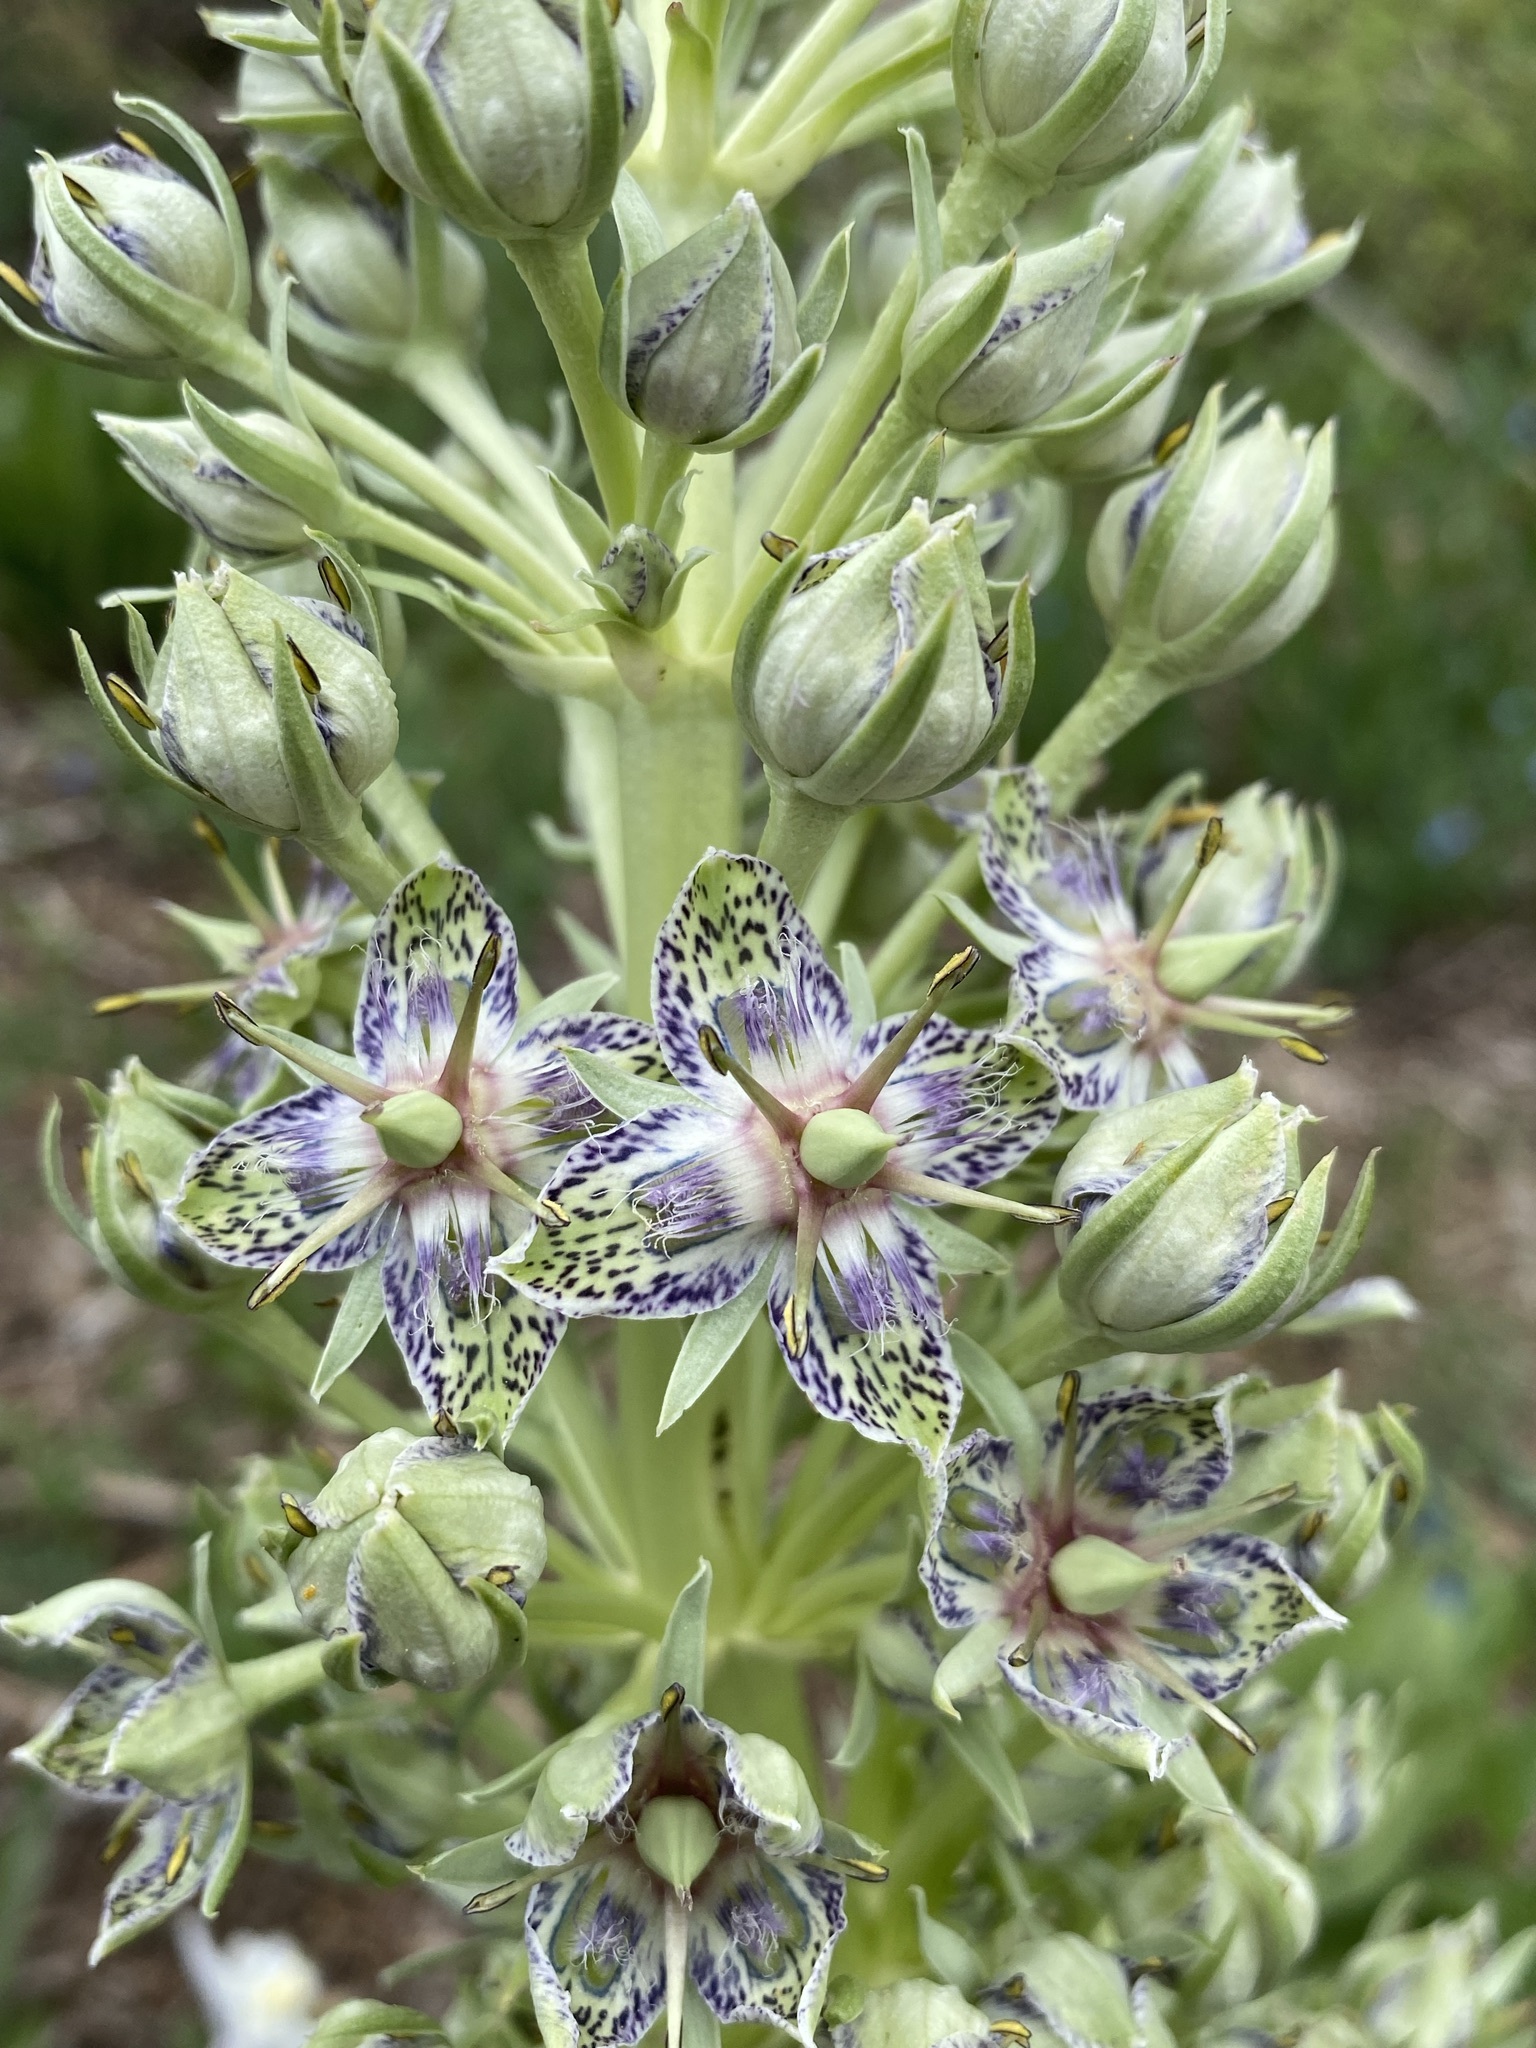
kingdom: Plantae
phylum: Tracheophyta
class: Magnoliopsida
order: Gentianales
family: Gentianaceae
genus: Frasera
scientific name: Frasera speciosa
